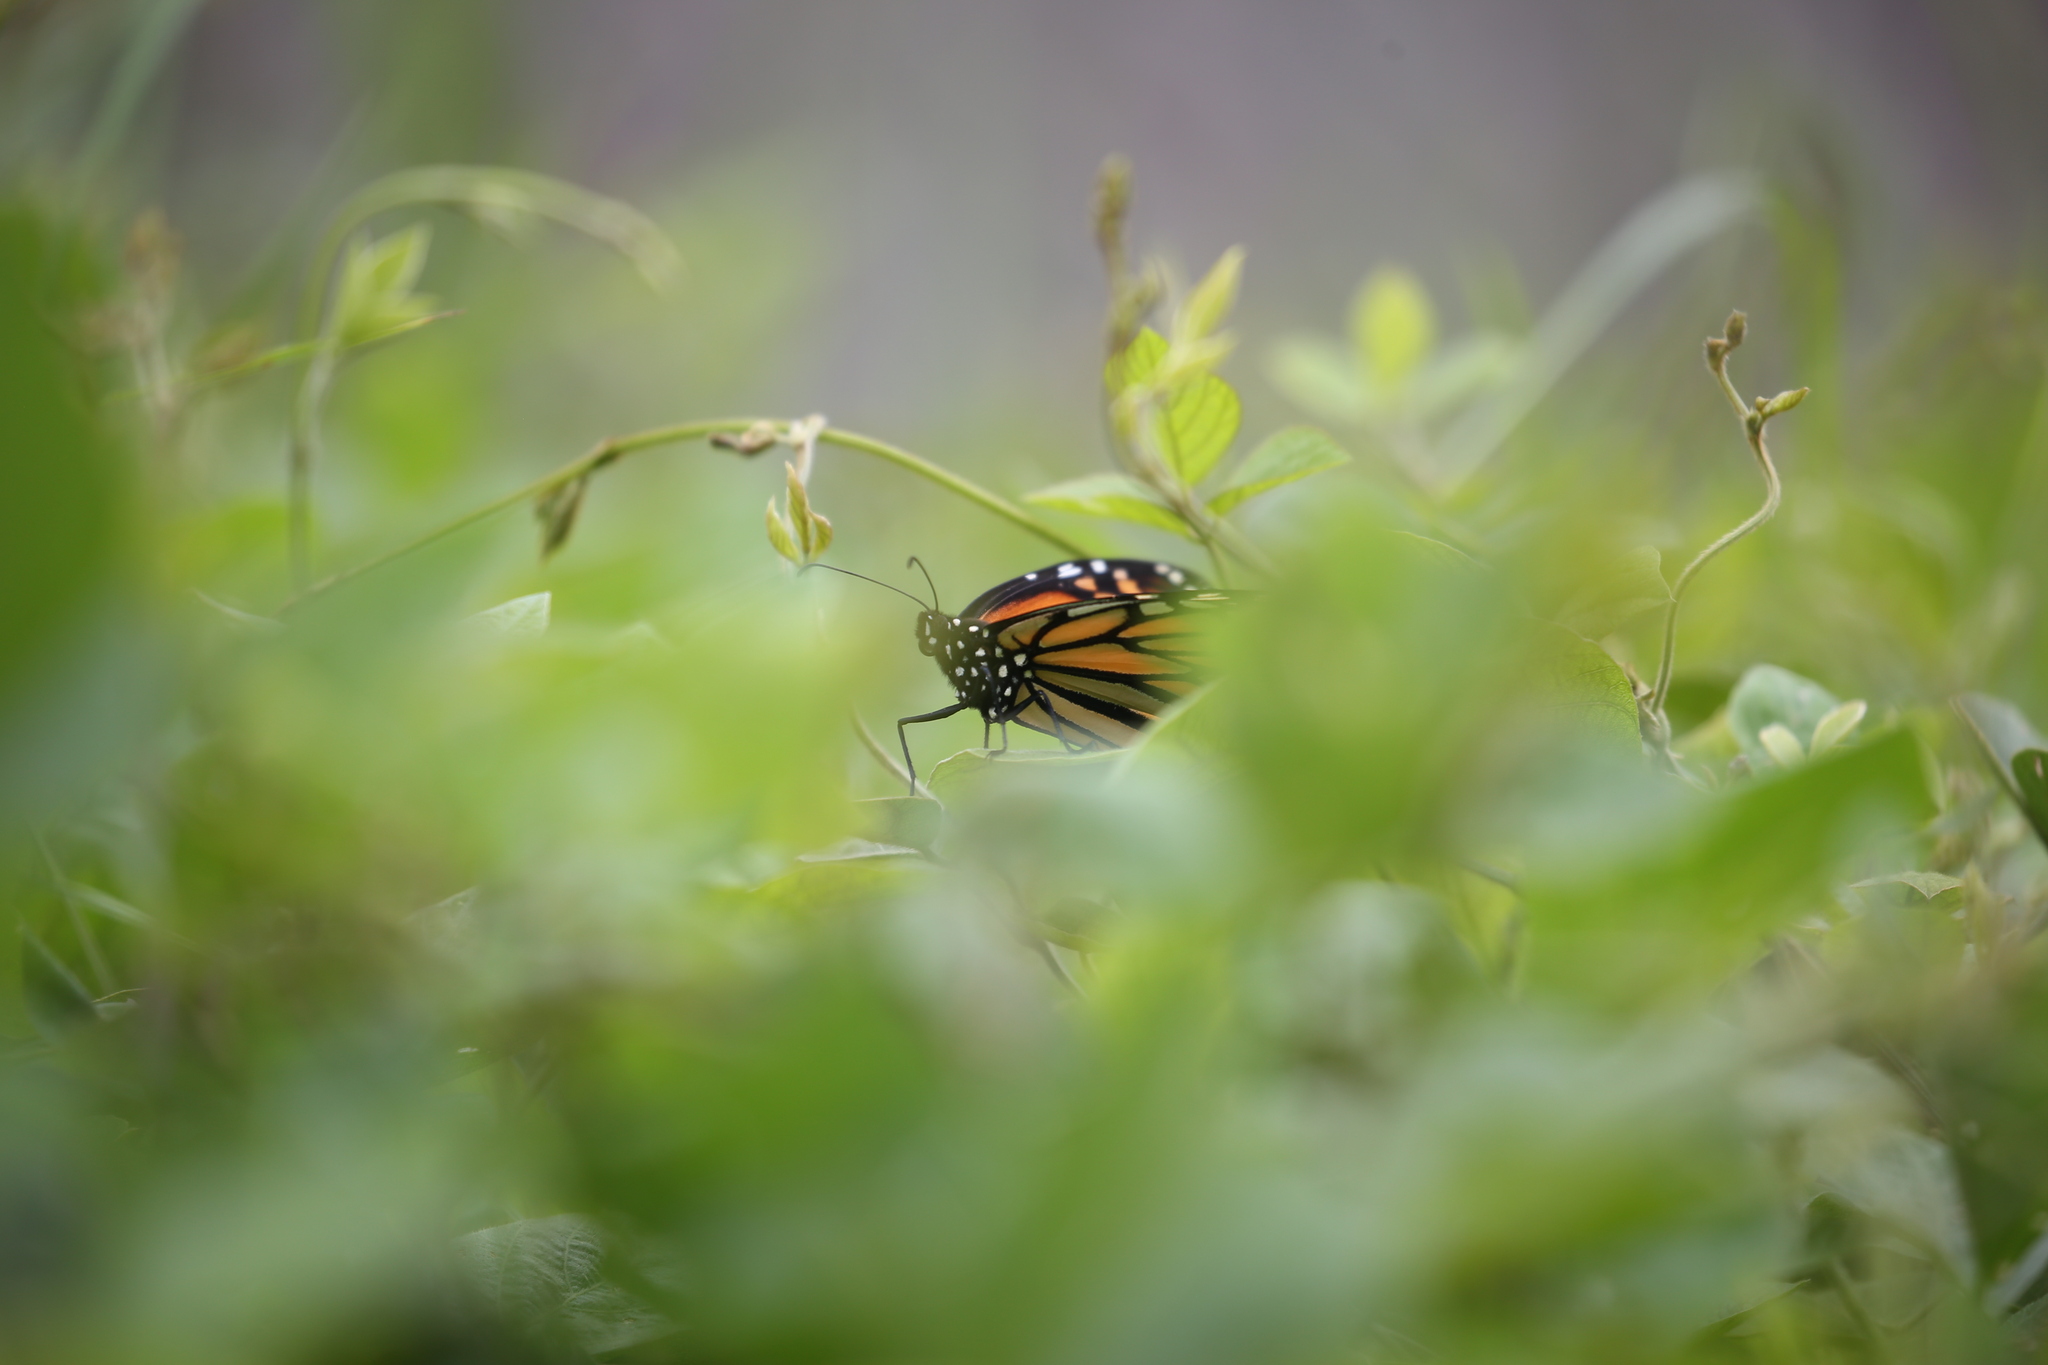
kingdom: Animalia
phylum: Arthropoda
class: Insecta
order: Lepidoptera
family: Nymphalidae
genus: Danaus
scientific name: Danaus plexippus
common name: Monarch
